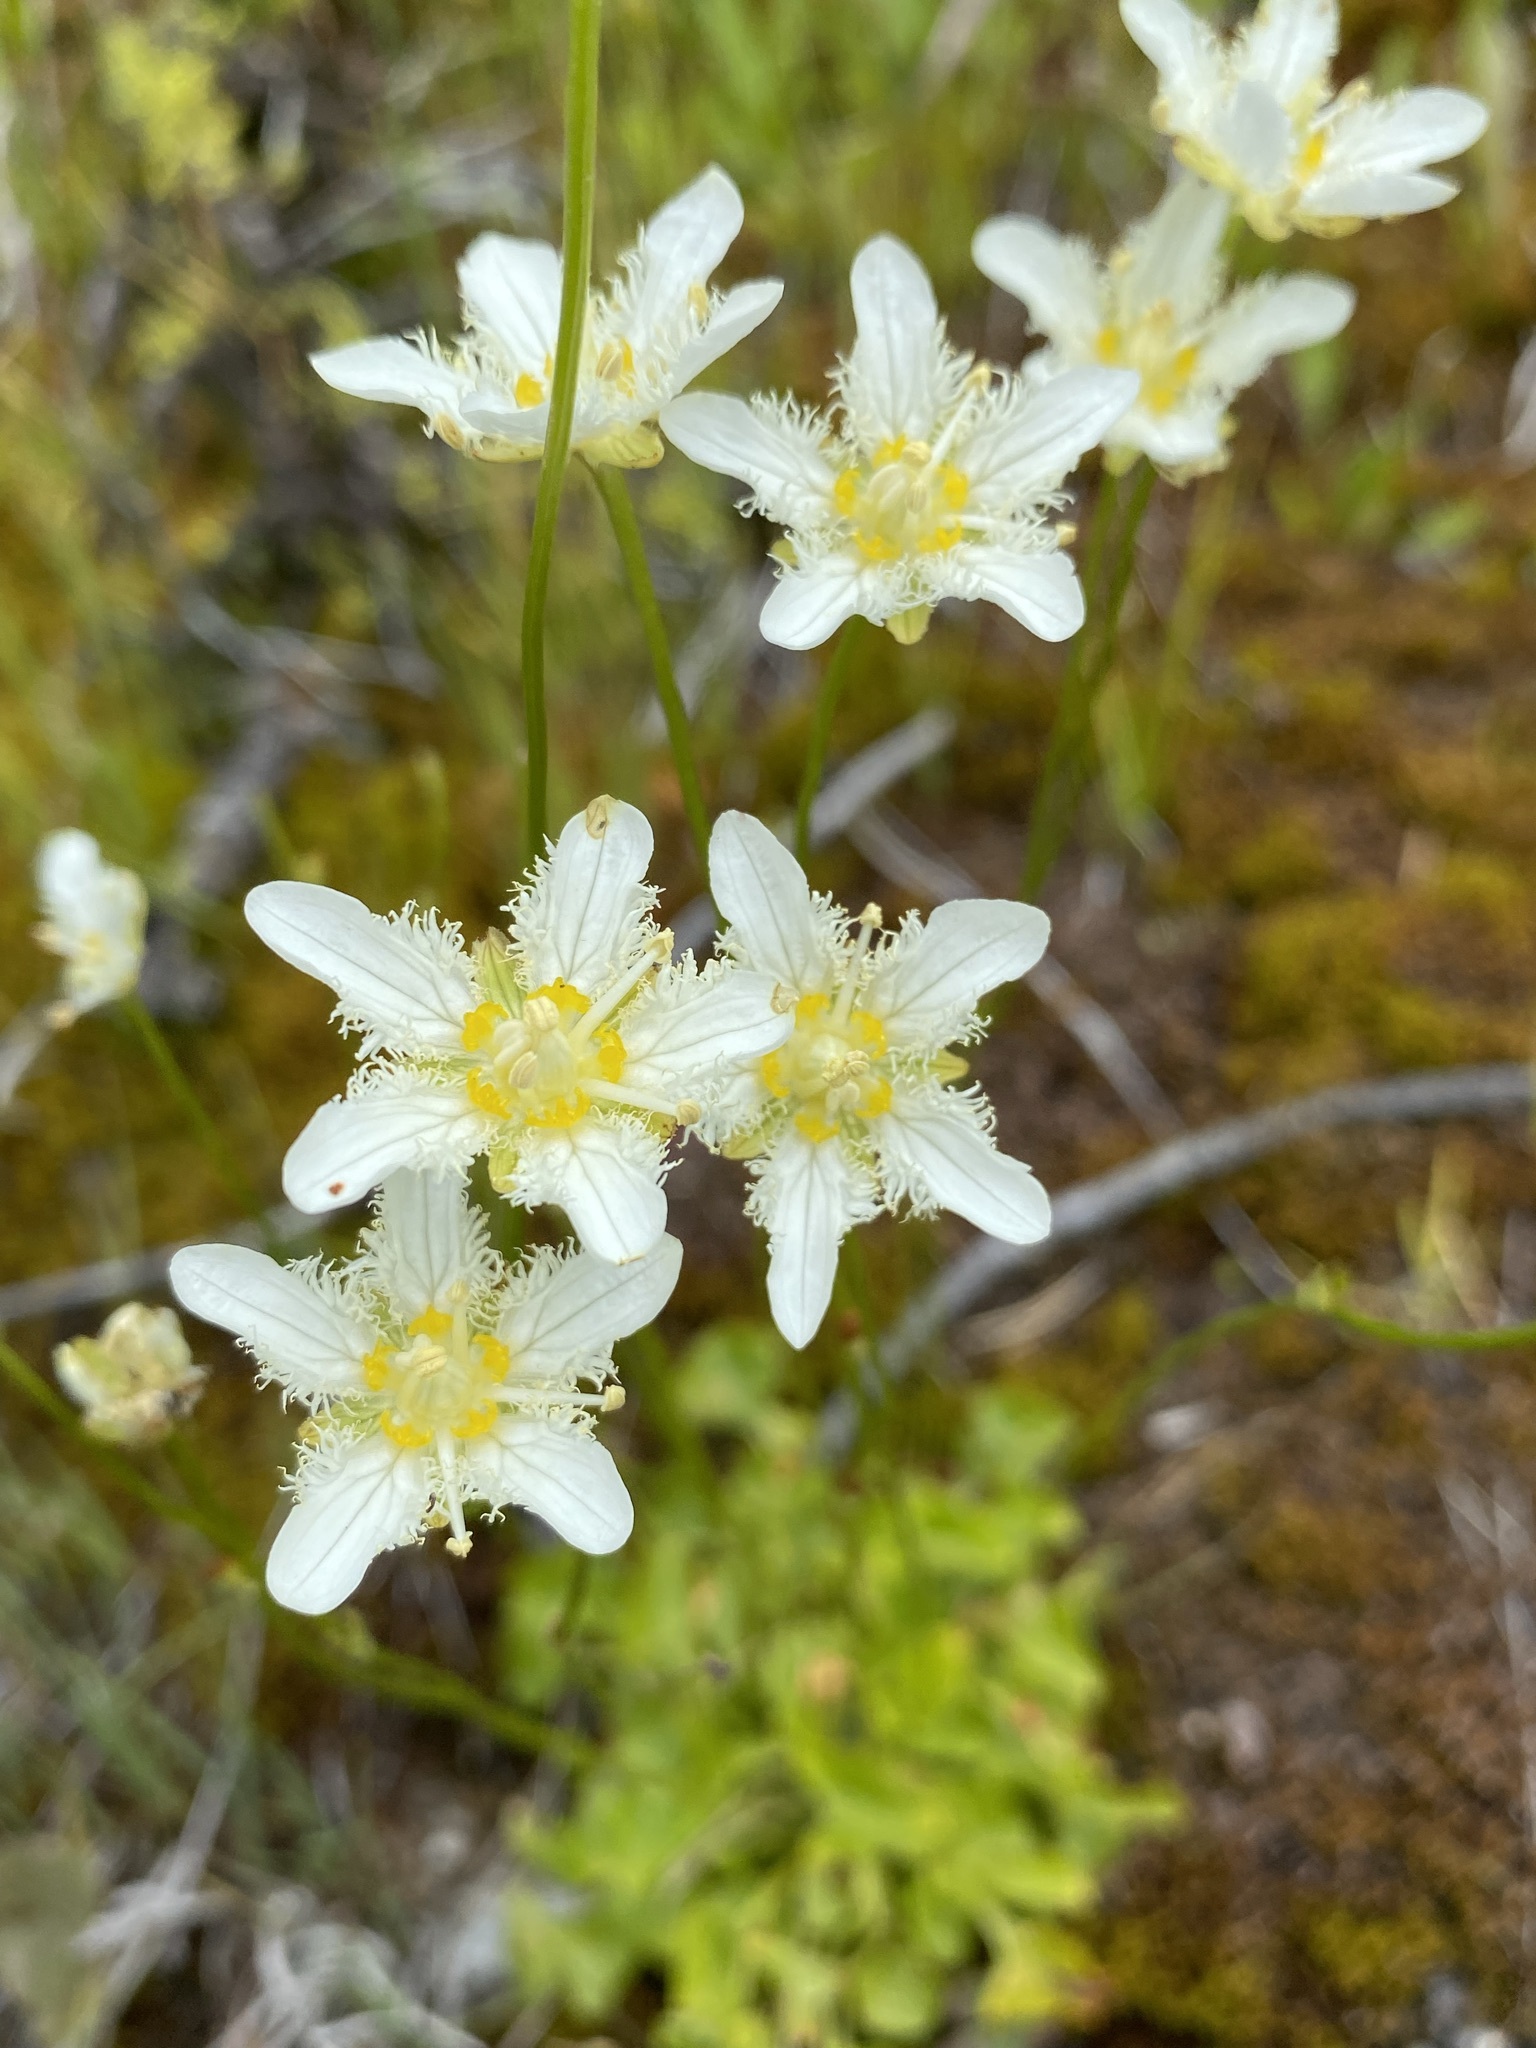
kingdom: Plantae
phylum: Tracheophyta
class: Magnoliopsida
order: Celastrales
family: Parnassiaceae
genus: Parnassia
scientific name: Parnassia fimbriata
